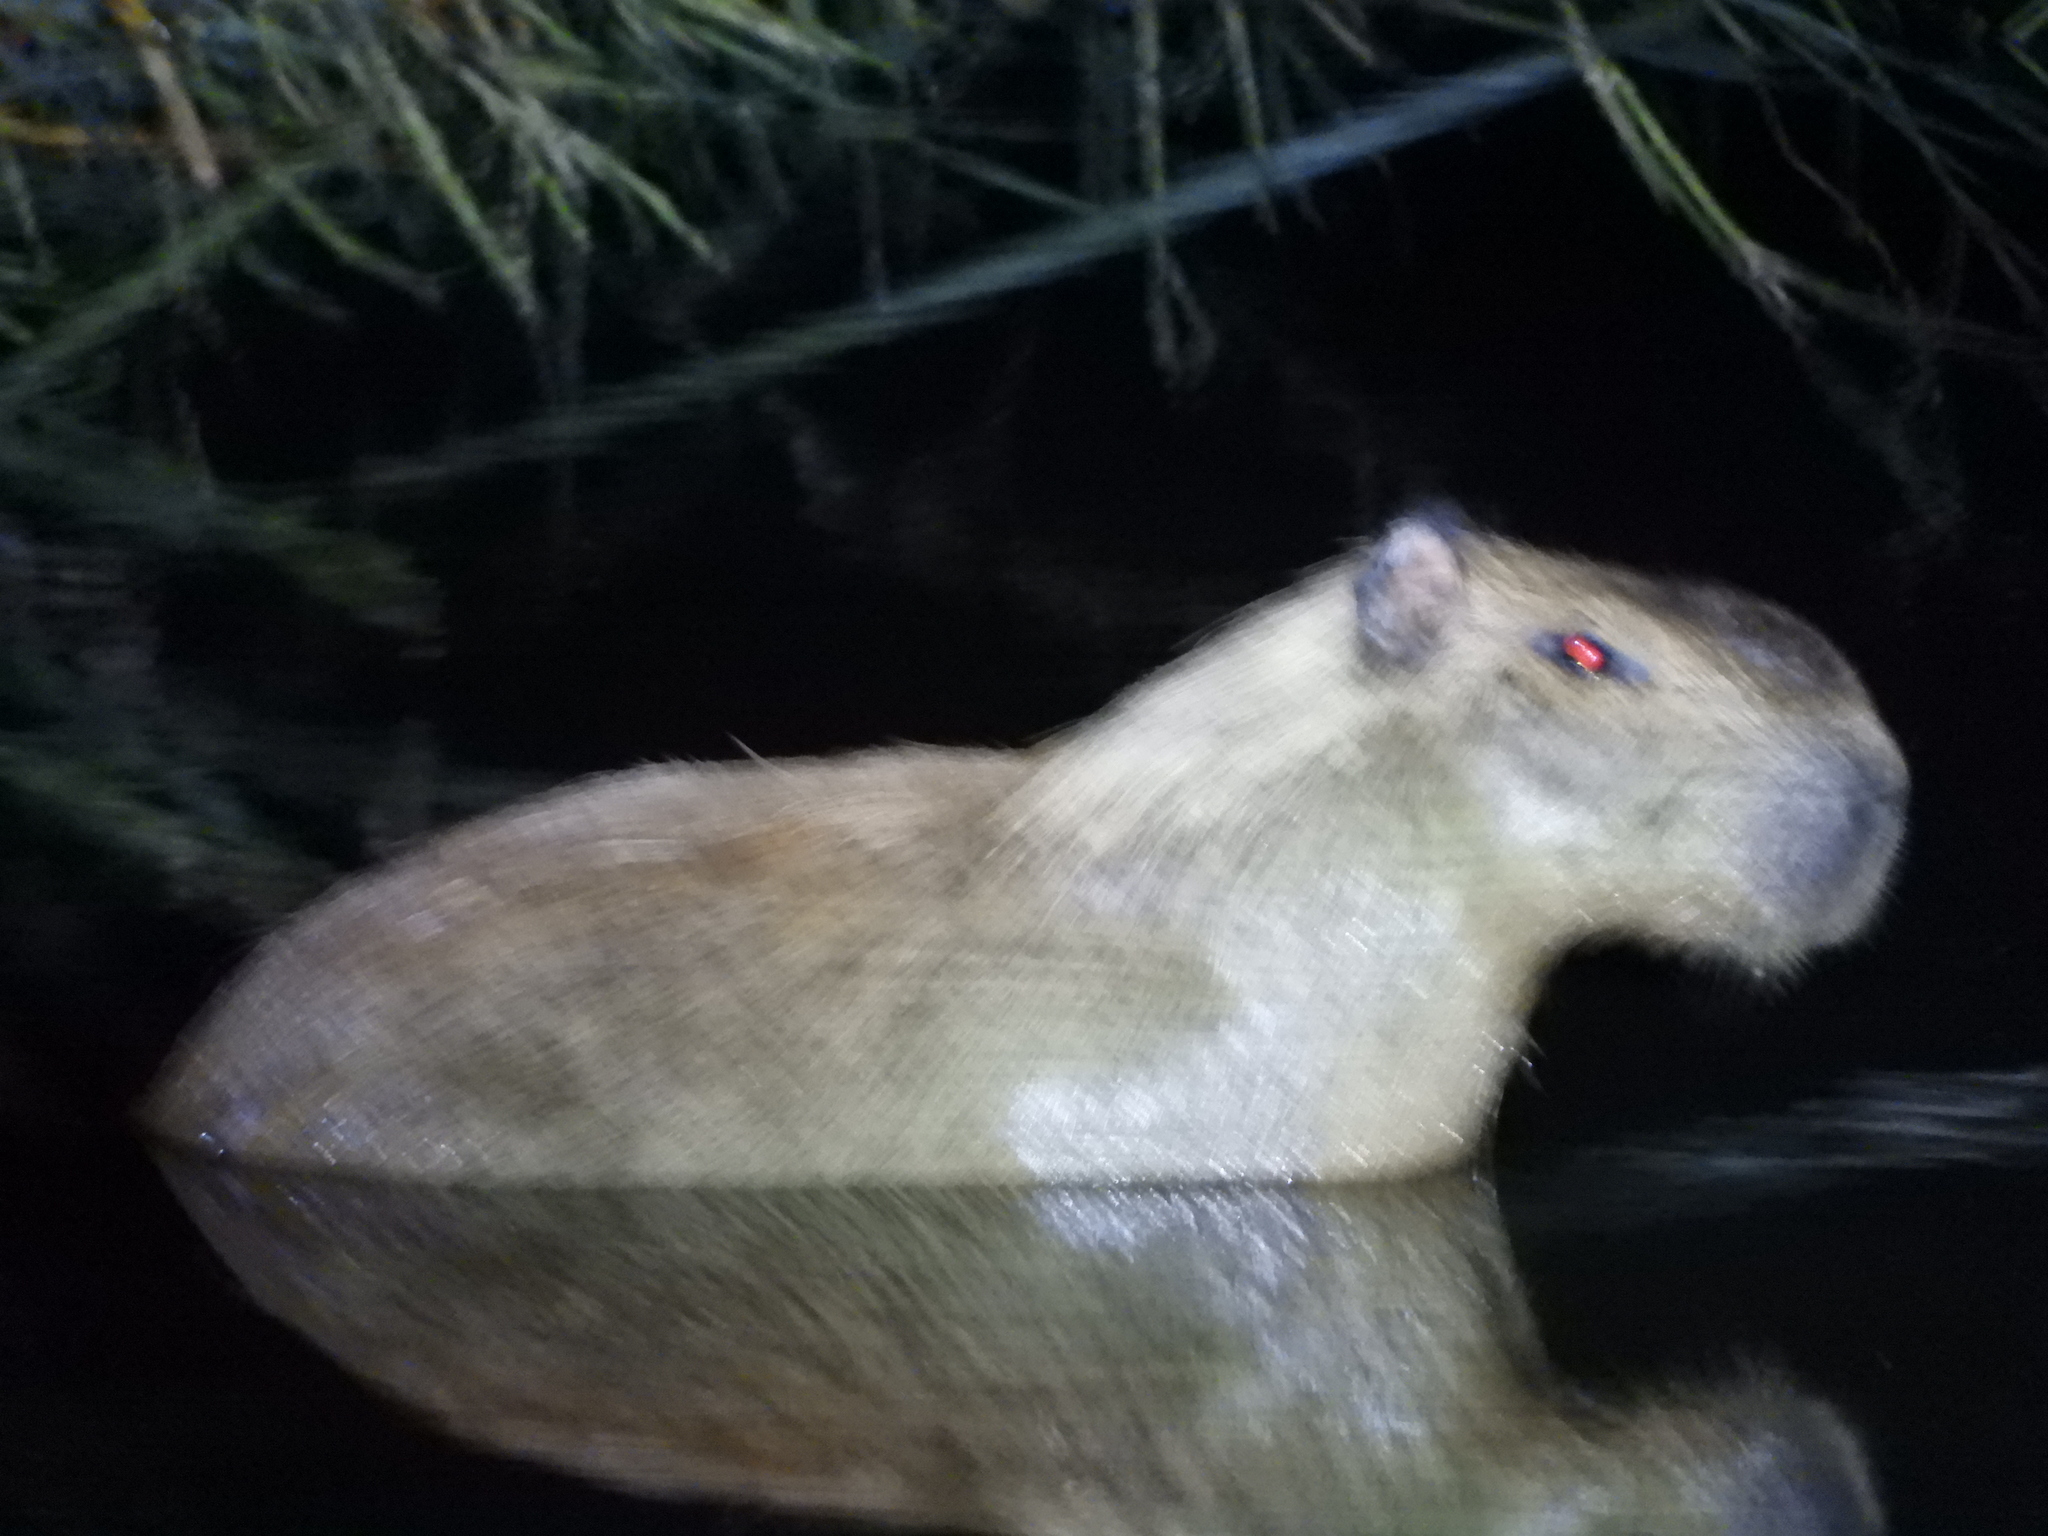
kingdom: Animalia
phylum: Chordata
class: Mammalia
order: Rodentia
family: Caviidae
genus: Hydrochoerus
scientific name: Hydrochoerus isthmius
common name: Lesser capybara
